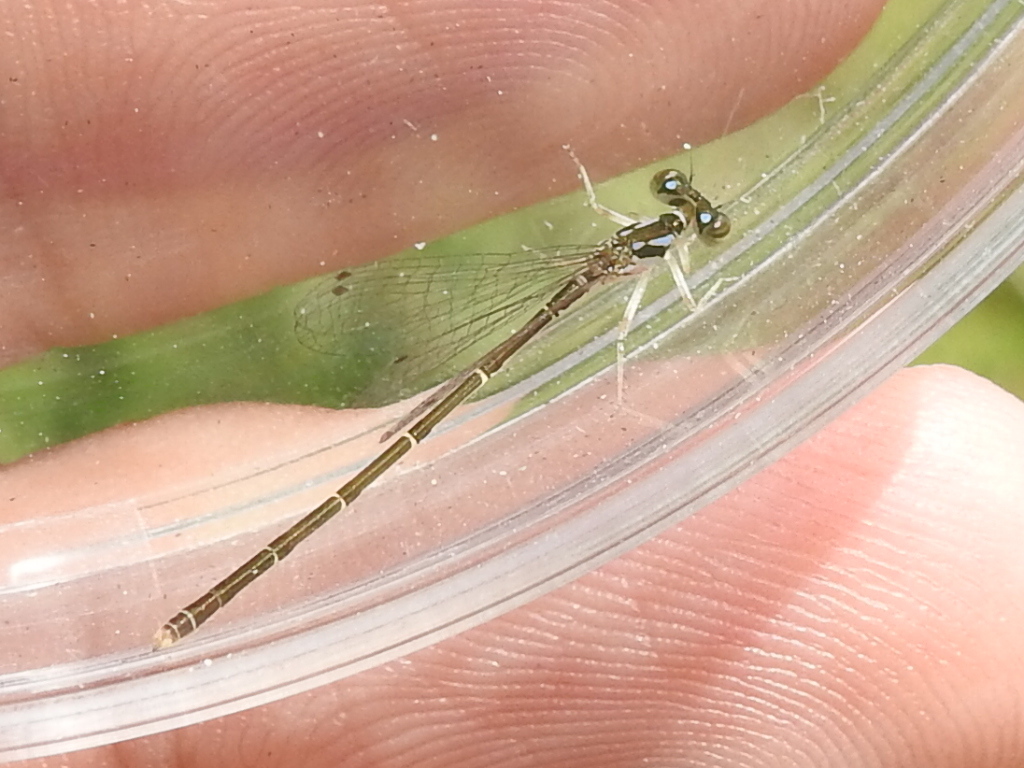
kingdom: Animalia
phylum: Arthropoda
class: Insecta
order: Odonata
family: Coenagrionidae
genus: Ischnura
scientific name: Ischnura posita
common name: Fragile forktail
